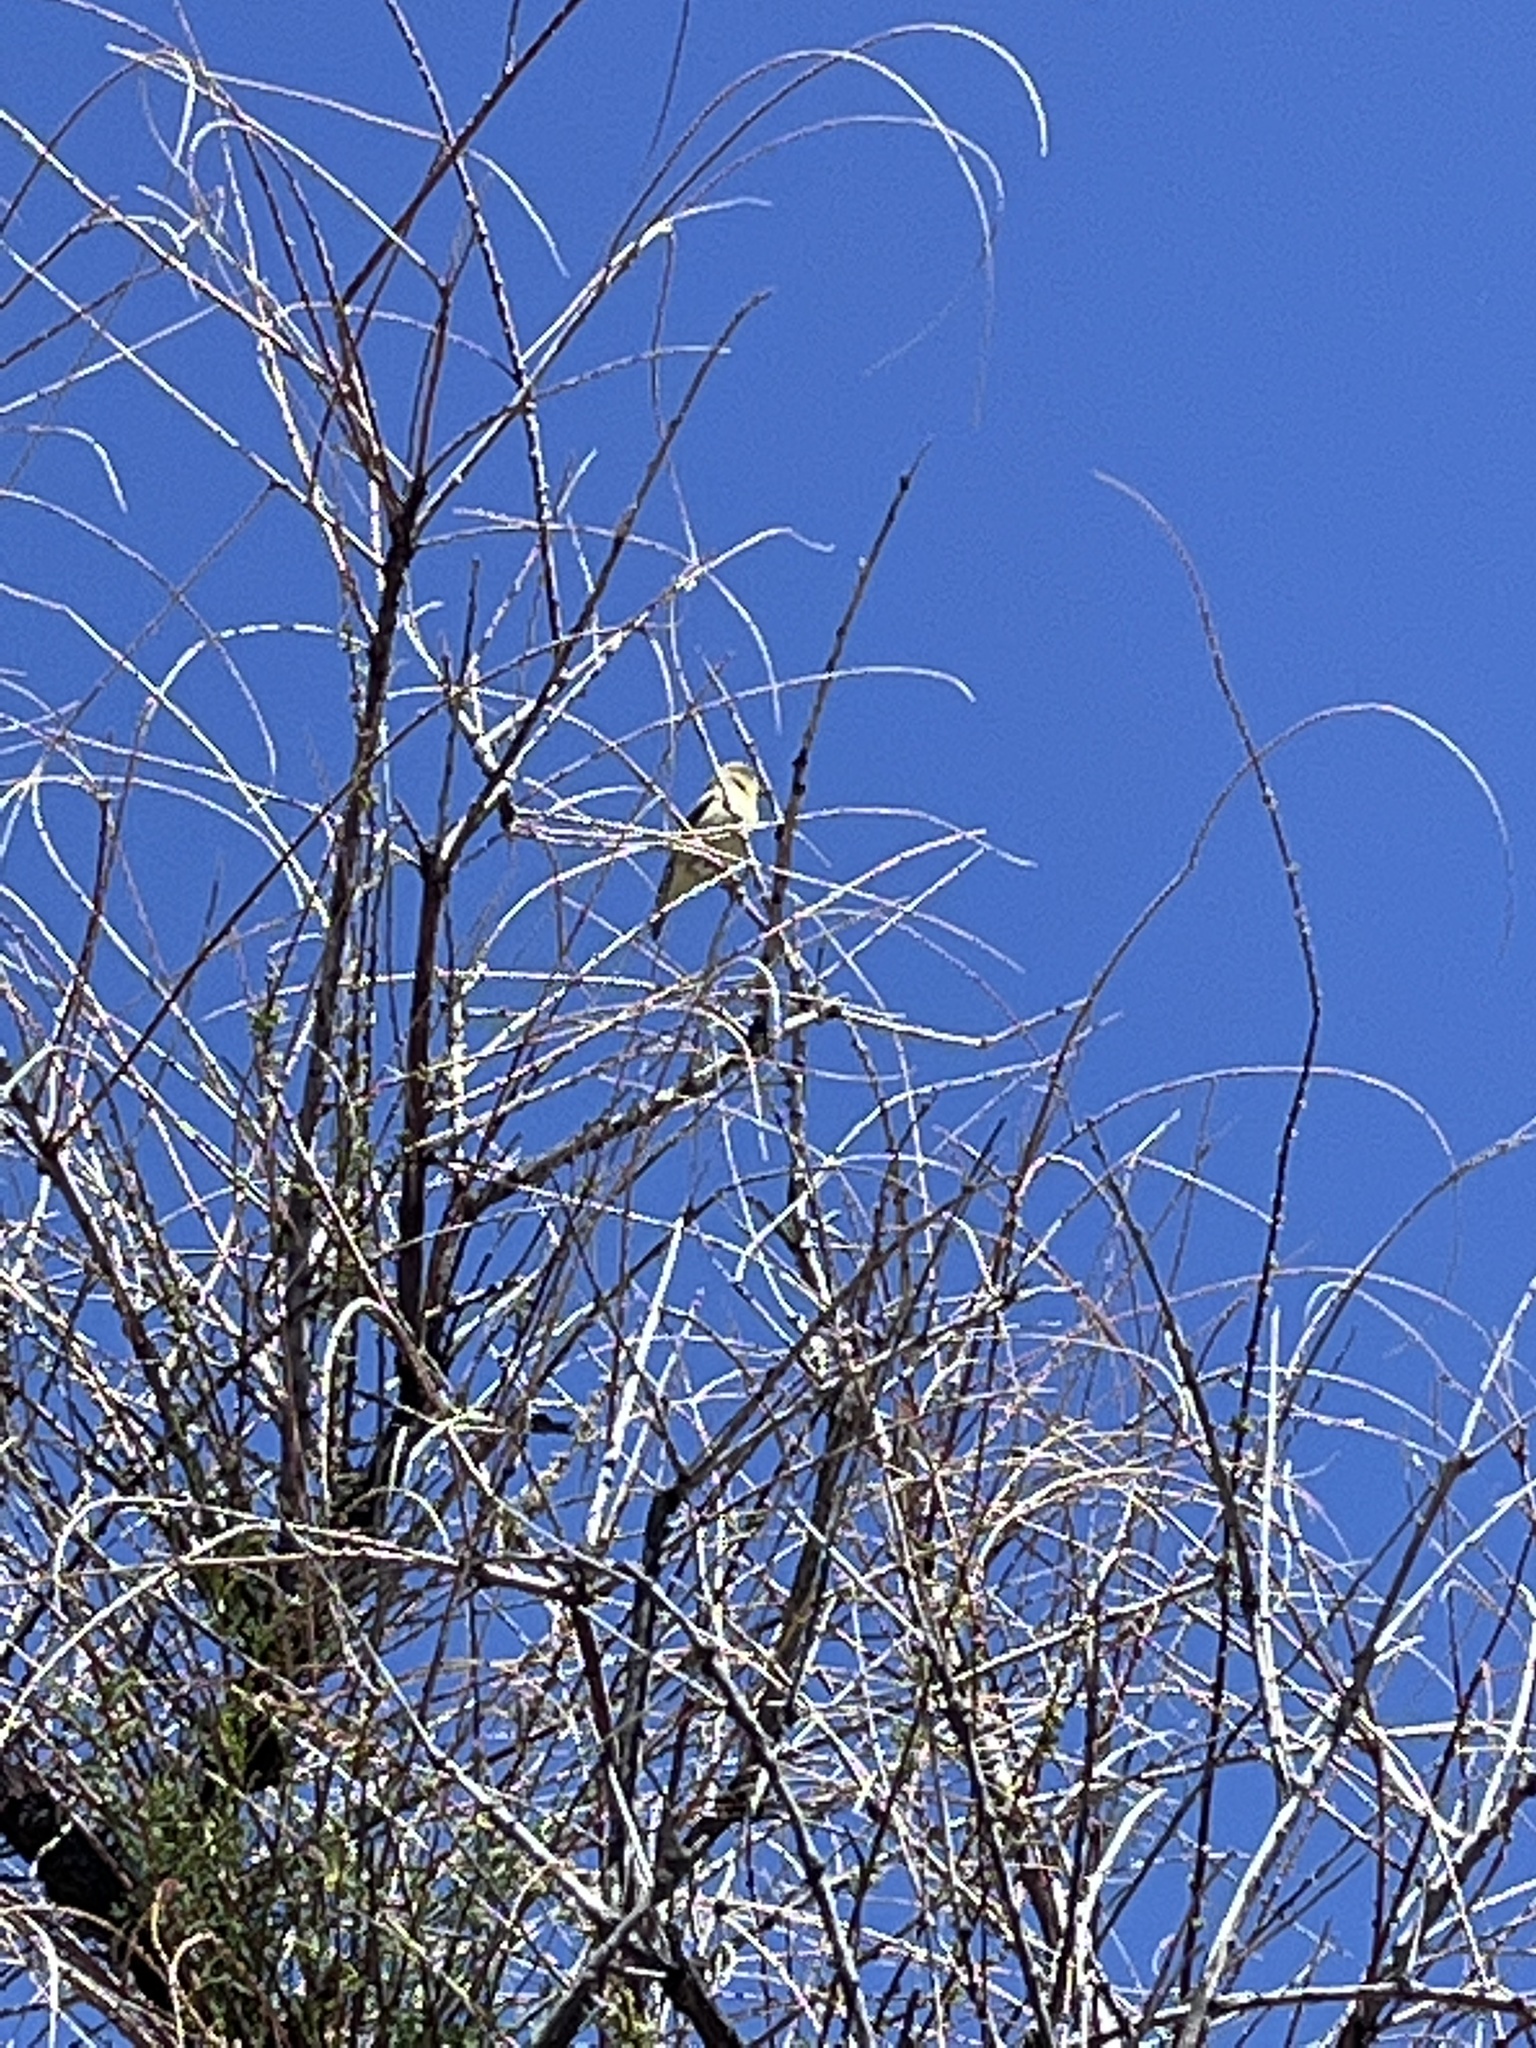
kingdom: Animalia
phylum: Chordata
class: Aves
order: Passeriformes
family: Fringillidae
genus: Spinus
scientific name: Spinus psaltria
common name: Lesser goldfinch
